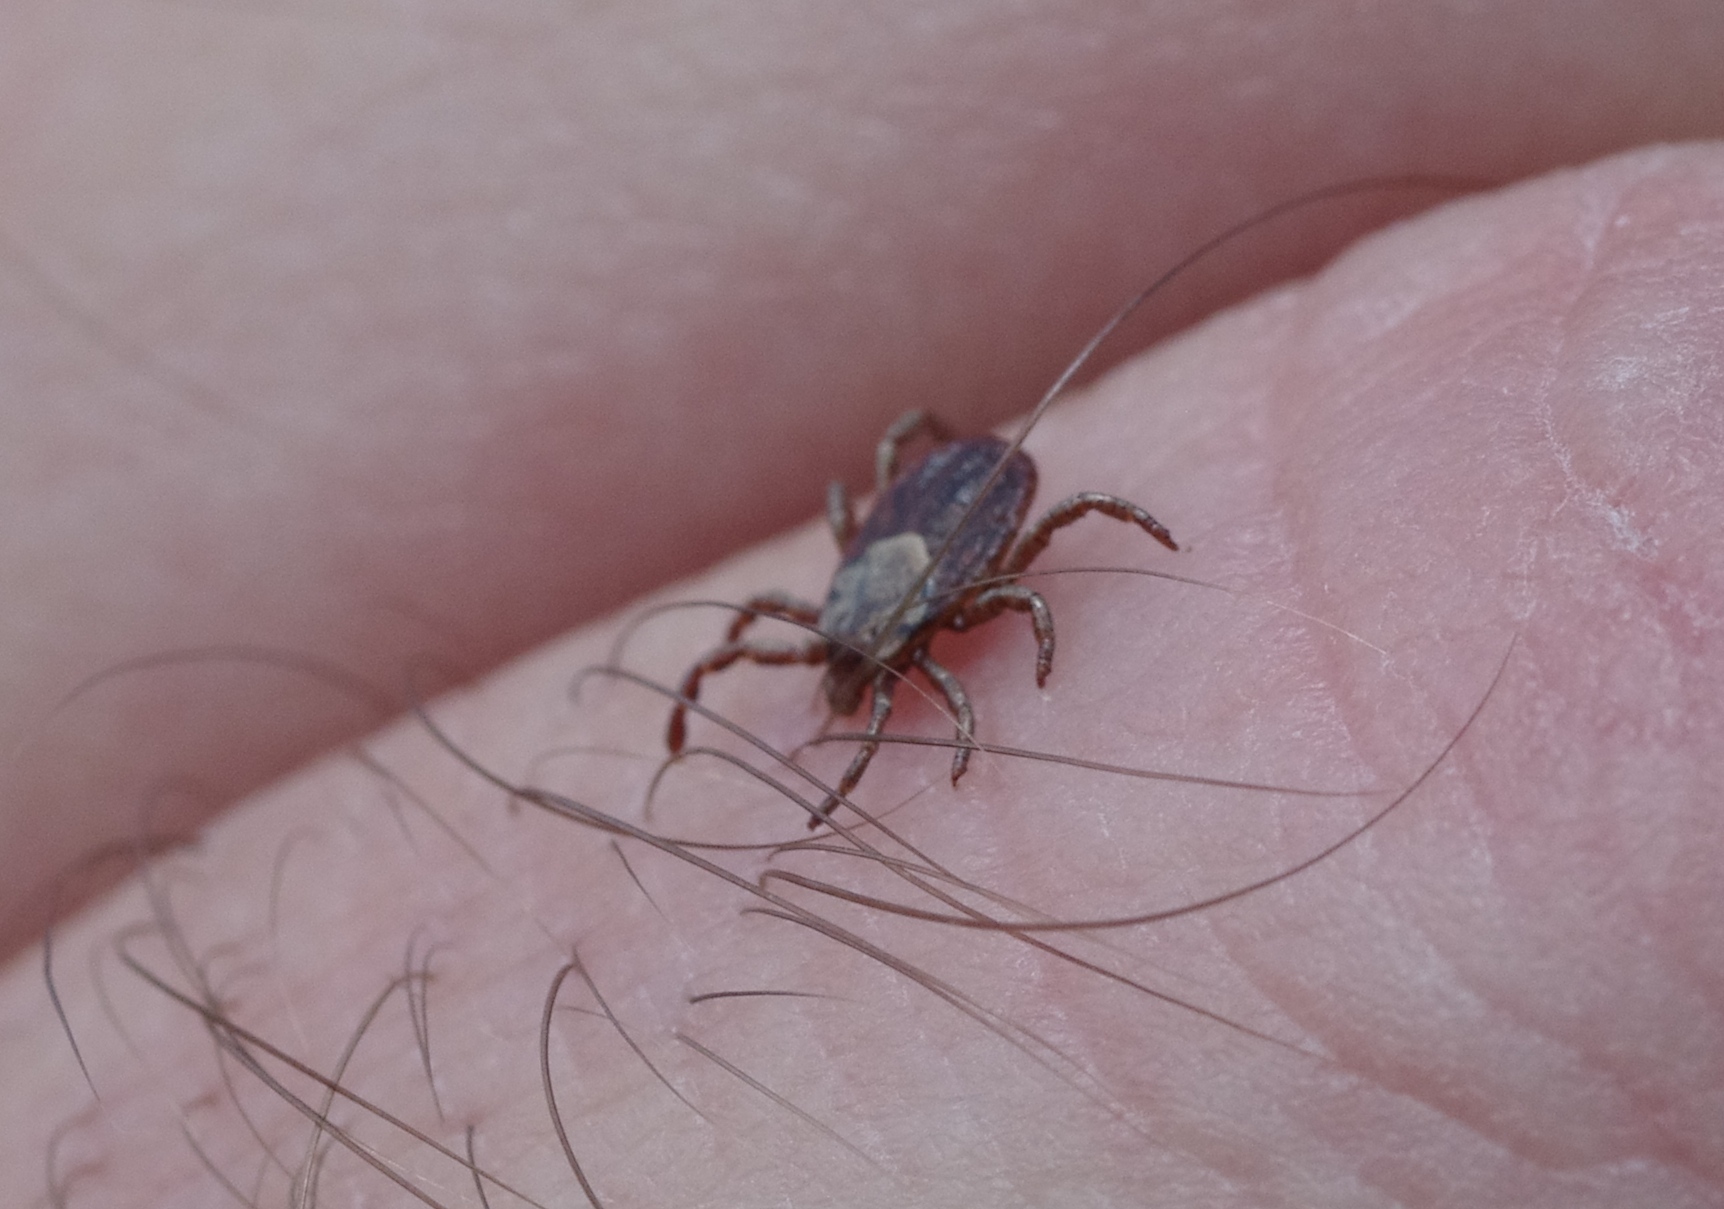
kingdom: Animalia
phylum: Arthropoda
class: Arachnida
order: Ixodida
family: Ixodidae
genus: Dermacentor
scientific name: Dermacentor occidentalis
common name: Net tick
